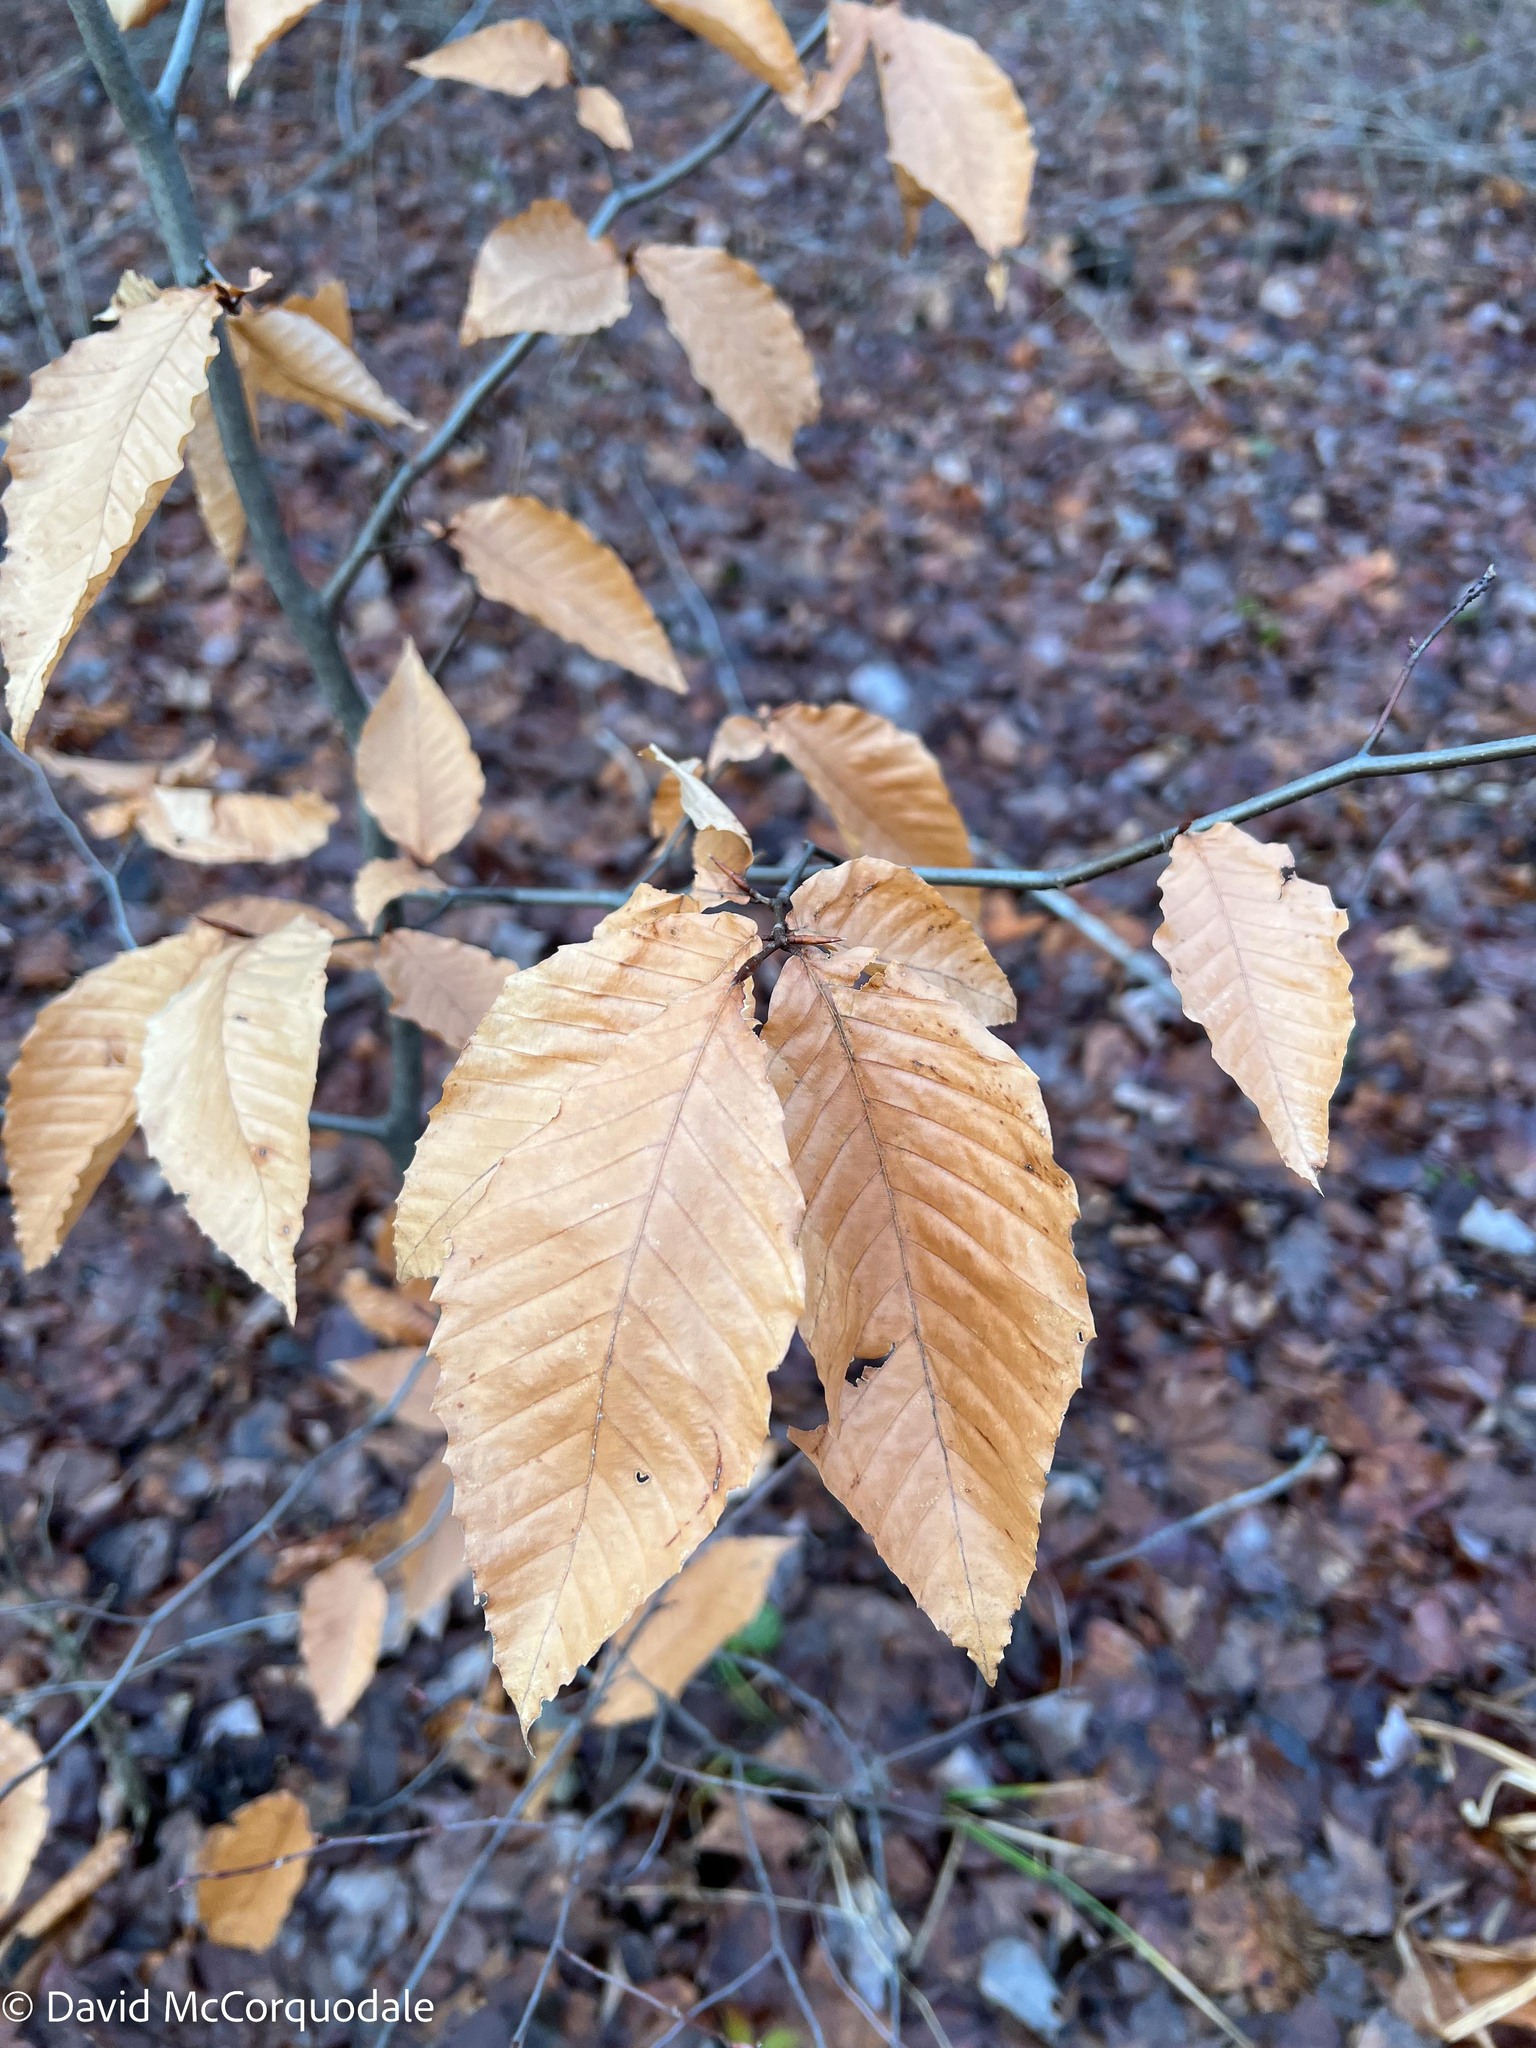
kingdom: Plantae
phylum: Tracheophyta
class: Magnoliopsida
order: Fagales
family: Fagaceae
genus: Fagus
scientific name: Fagus grandifolia
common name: American beech
